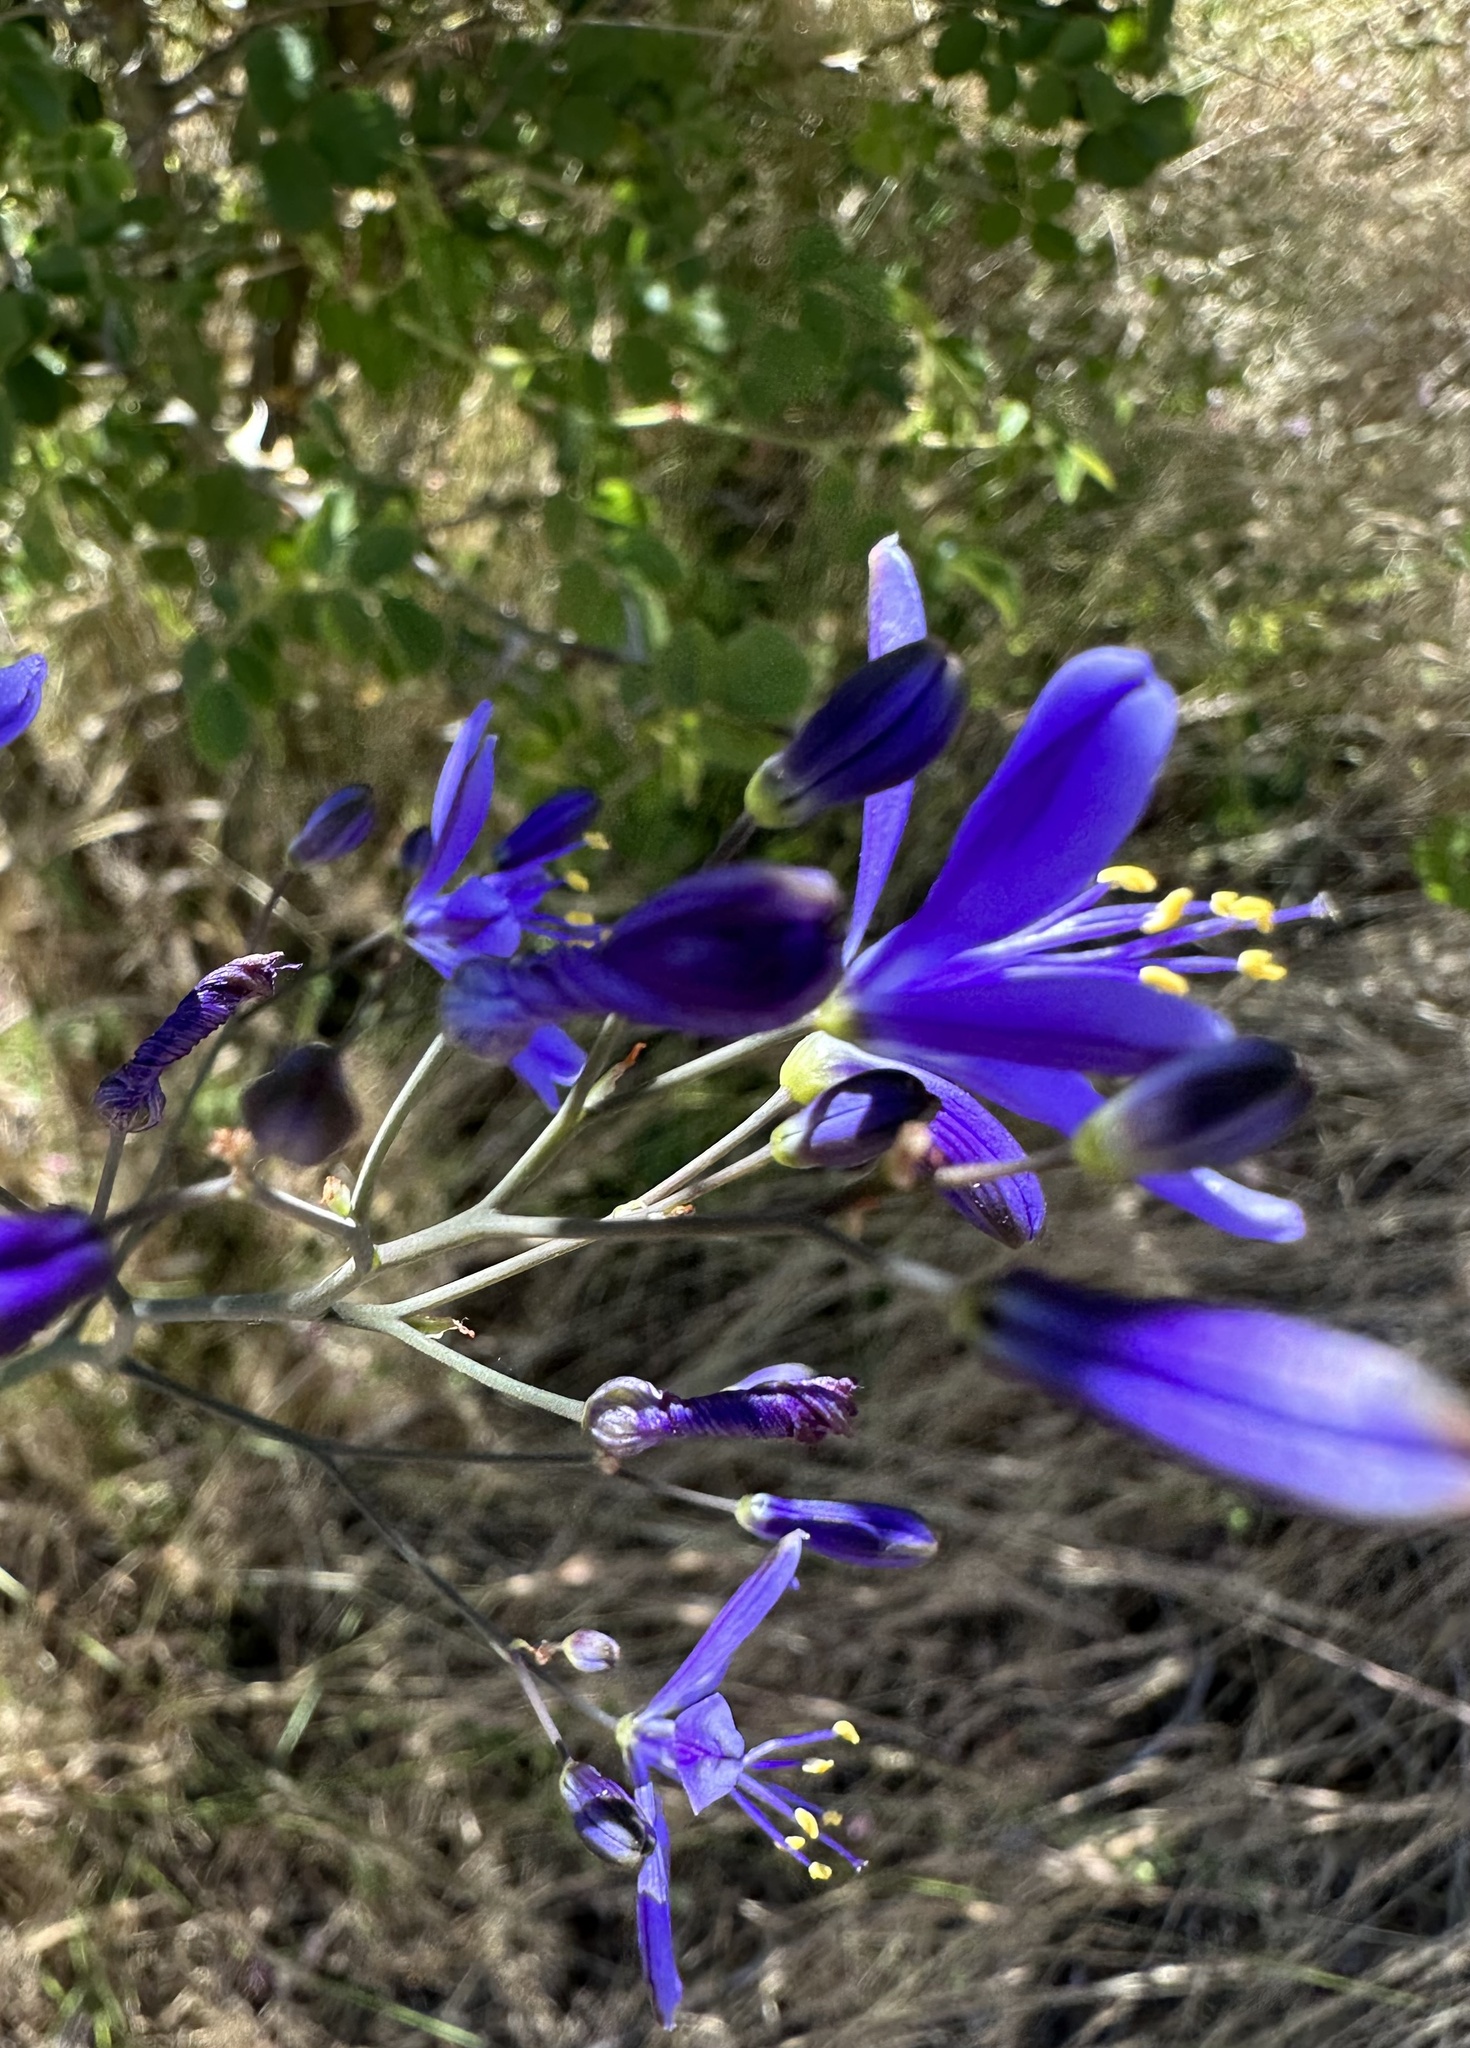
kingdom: Plantae
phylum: Tracheophyta
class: Liliopsida
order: Asparagales
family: Asphodelaceae
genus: Pasithea
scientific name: Pasithea caerulea
